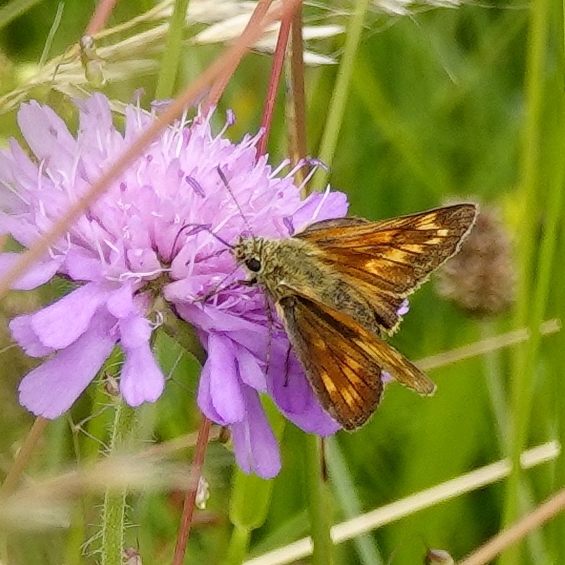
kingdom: Animalia
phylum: Arthropoda
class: Insecta
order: Lepidoptera
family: Hesperiidae
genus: Ochlodes
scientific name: Ochlodes venata
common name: Large skipper
